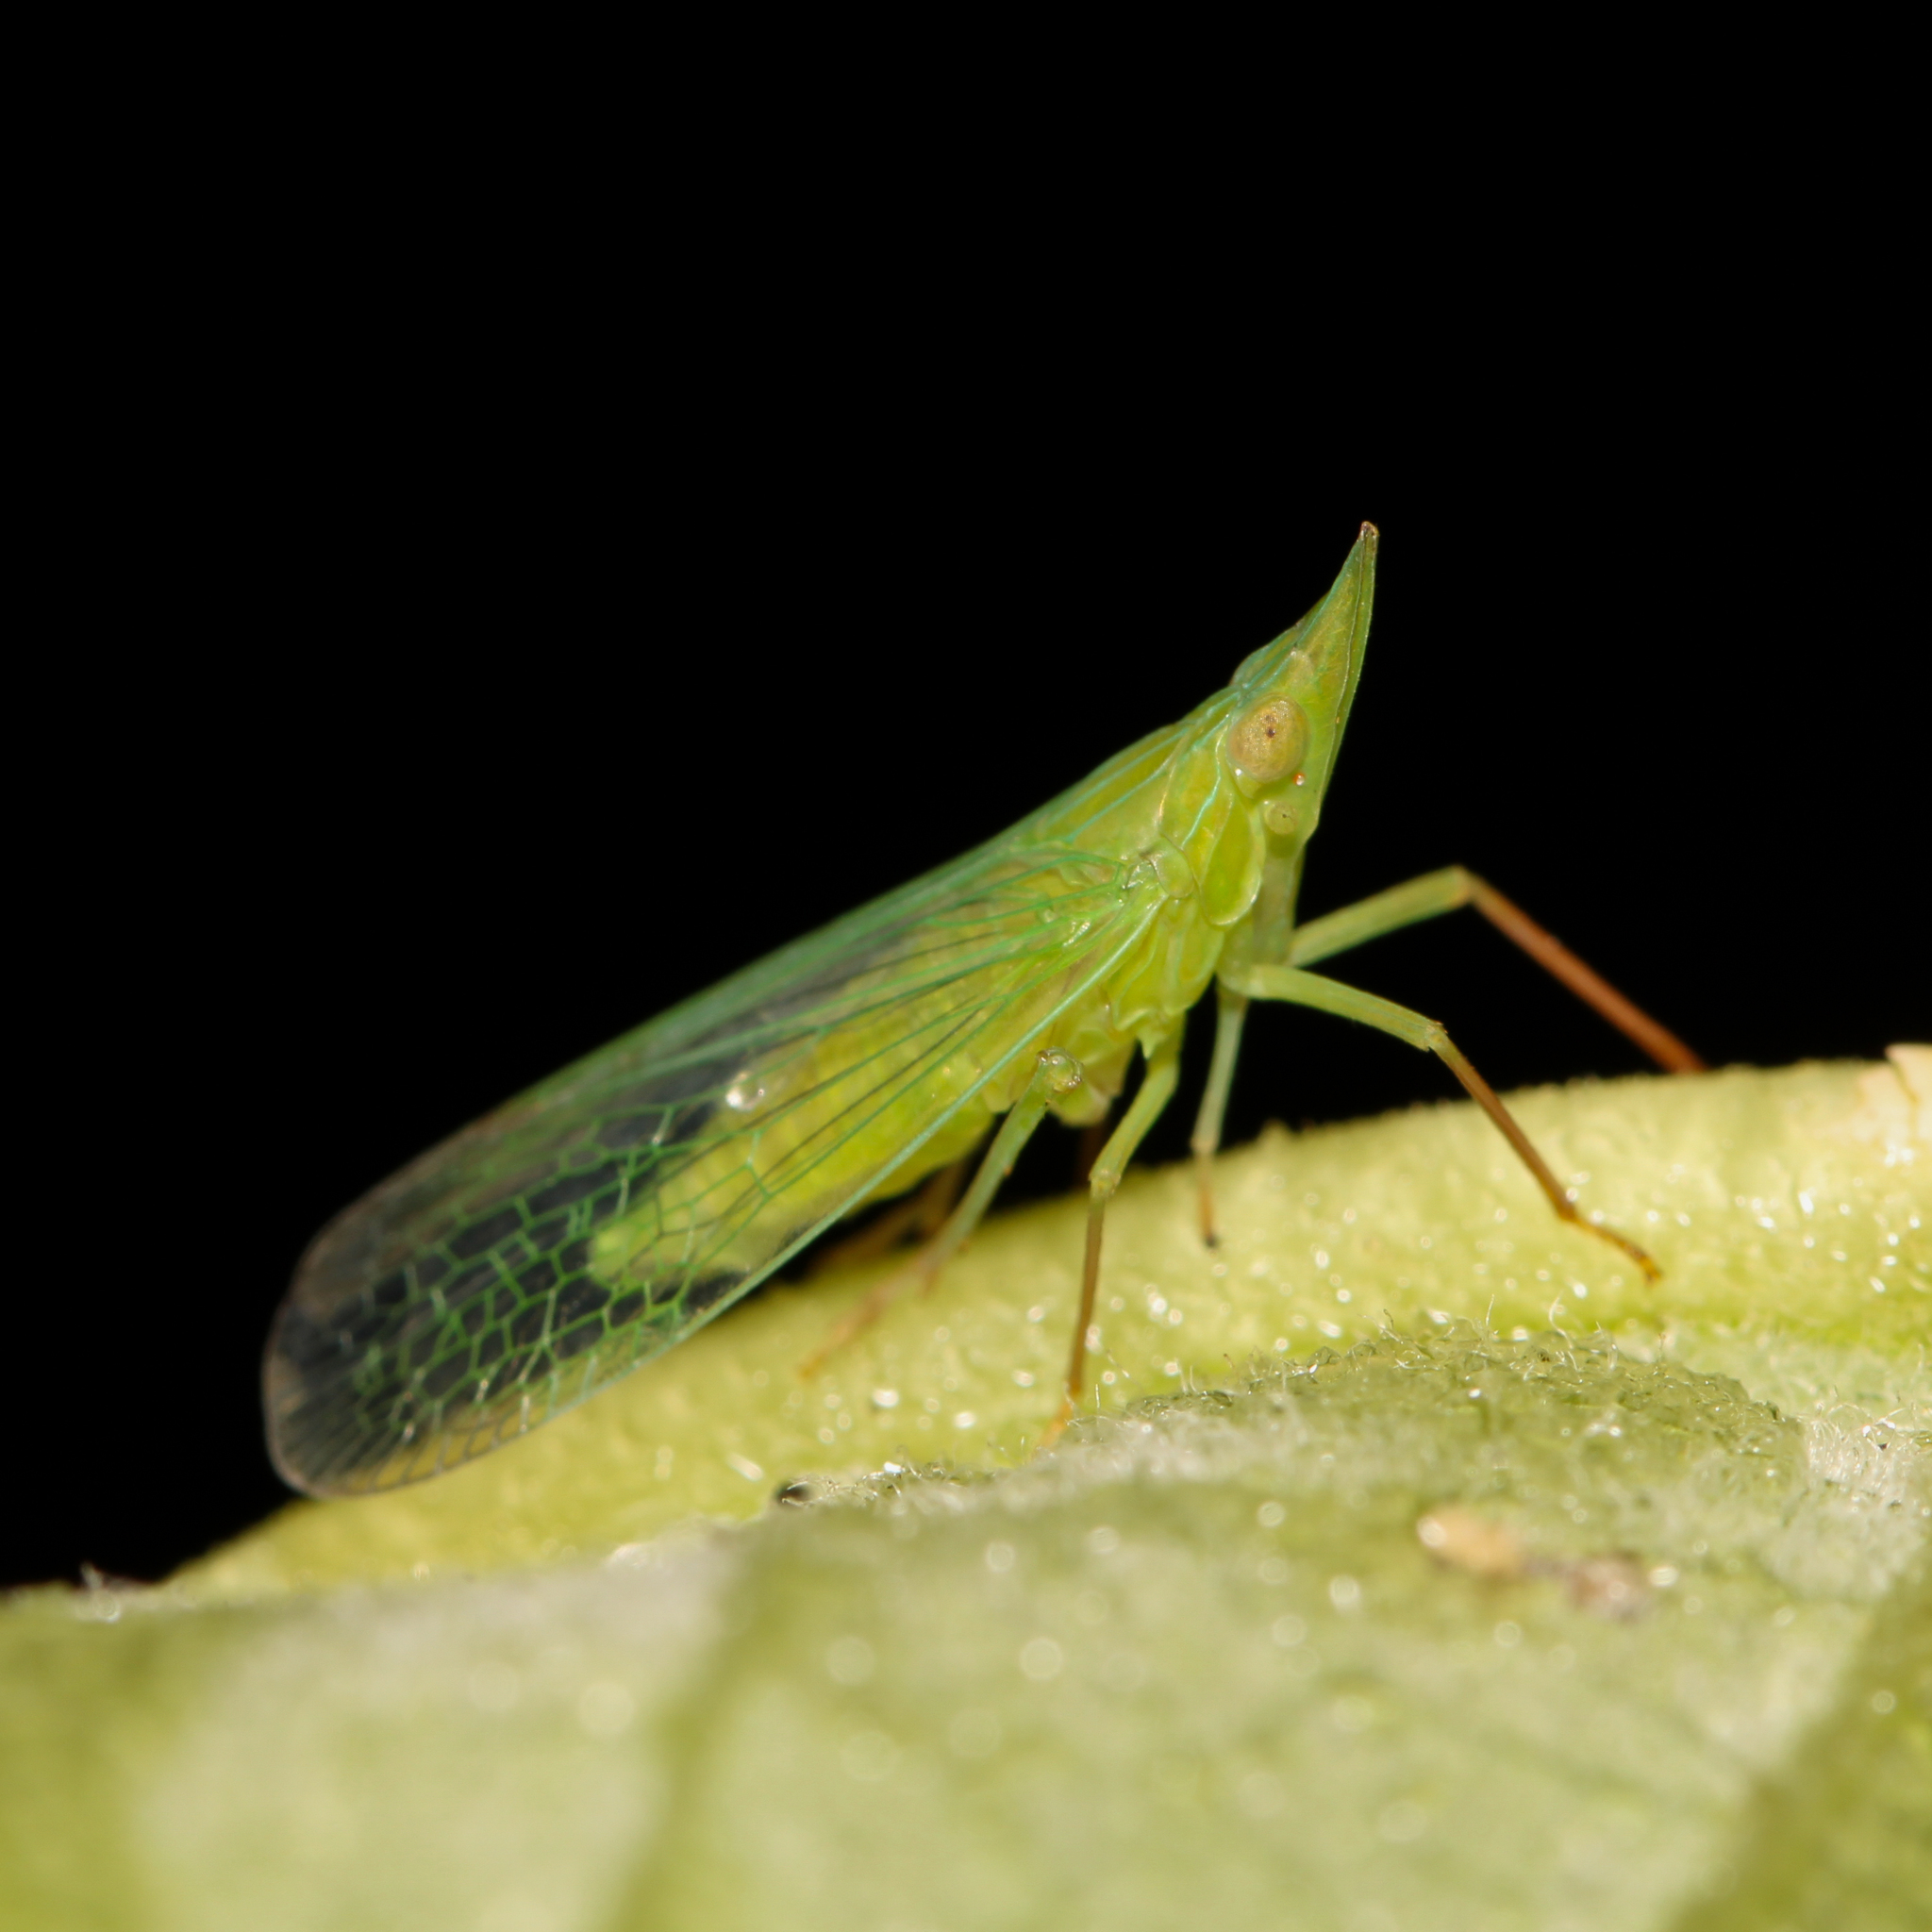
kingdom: Animalia
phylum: Arthropoda
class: Insecta
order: Hemiptera
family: Dictyopharidae
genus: Rhynchomitra
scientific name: Rhynchomitra microrhina
